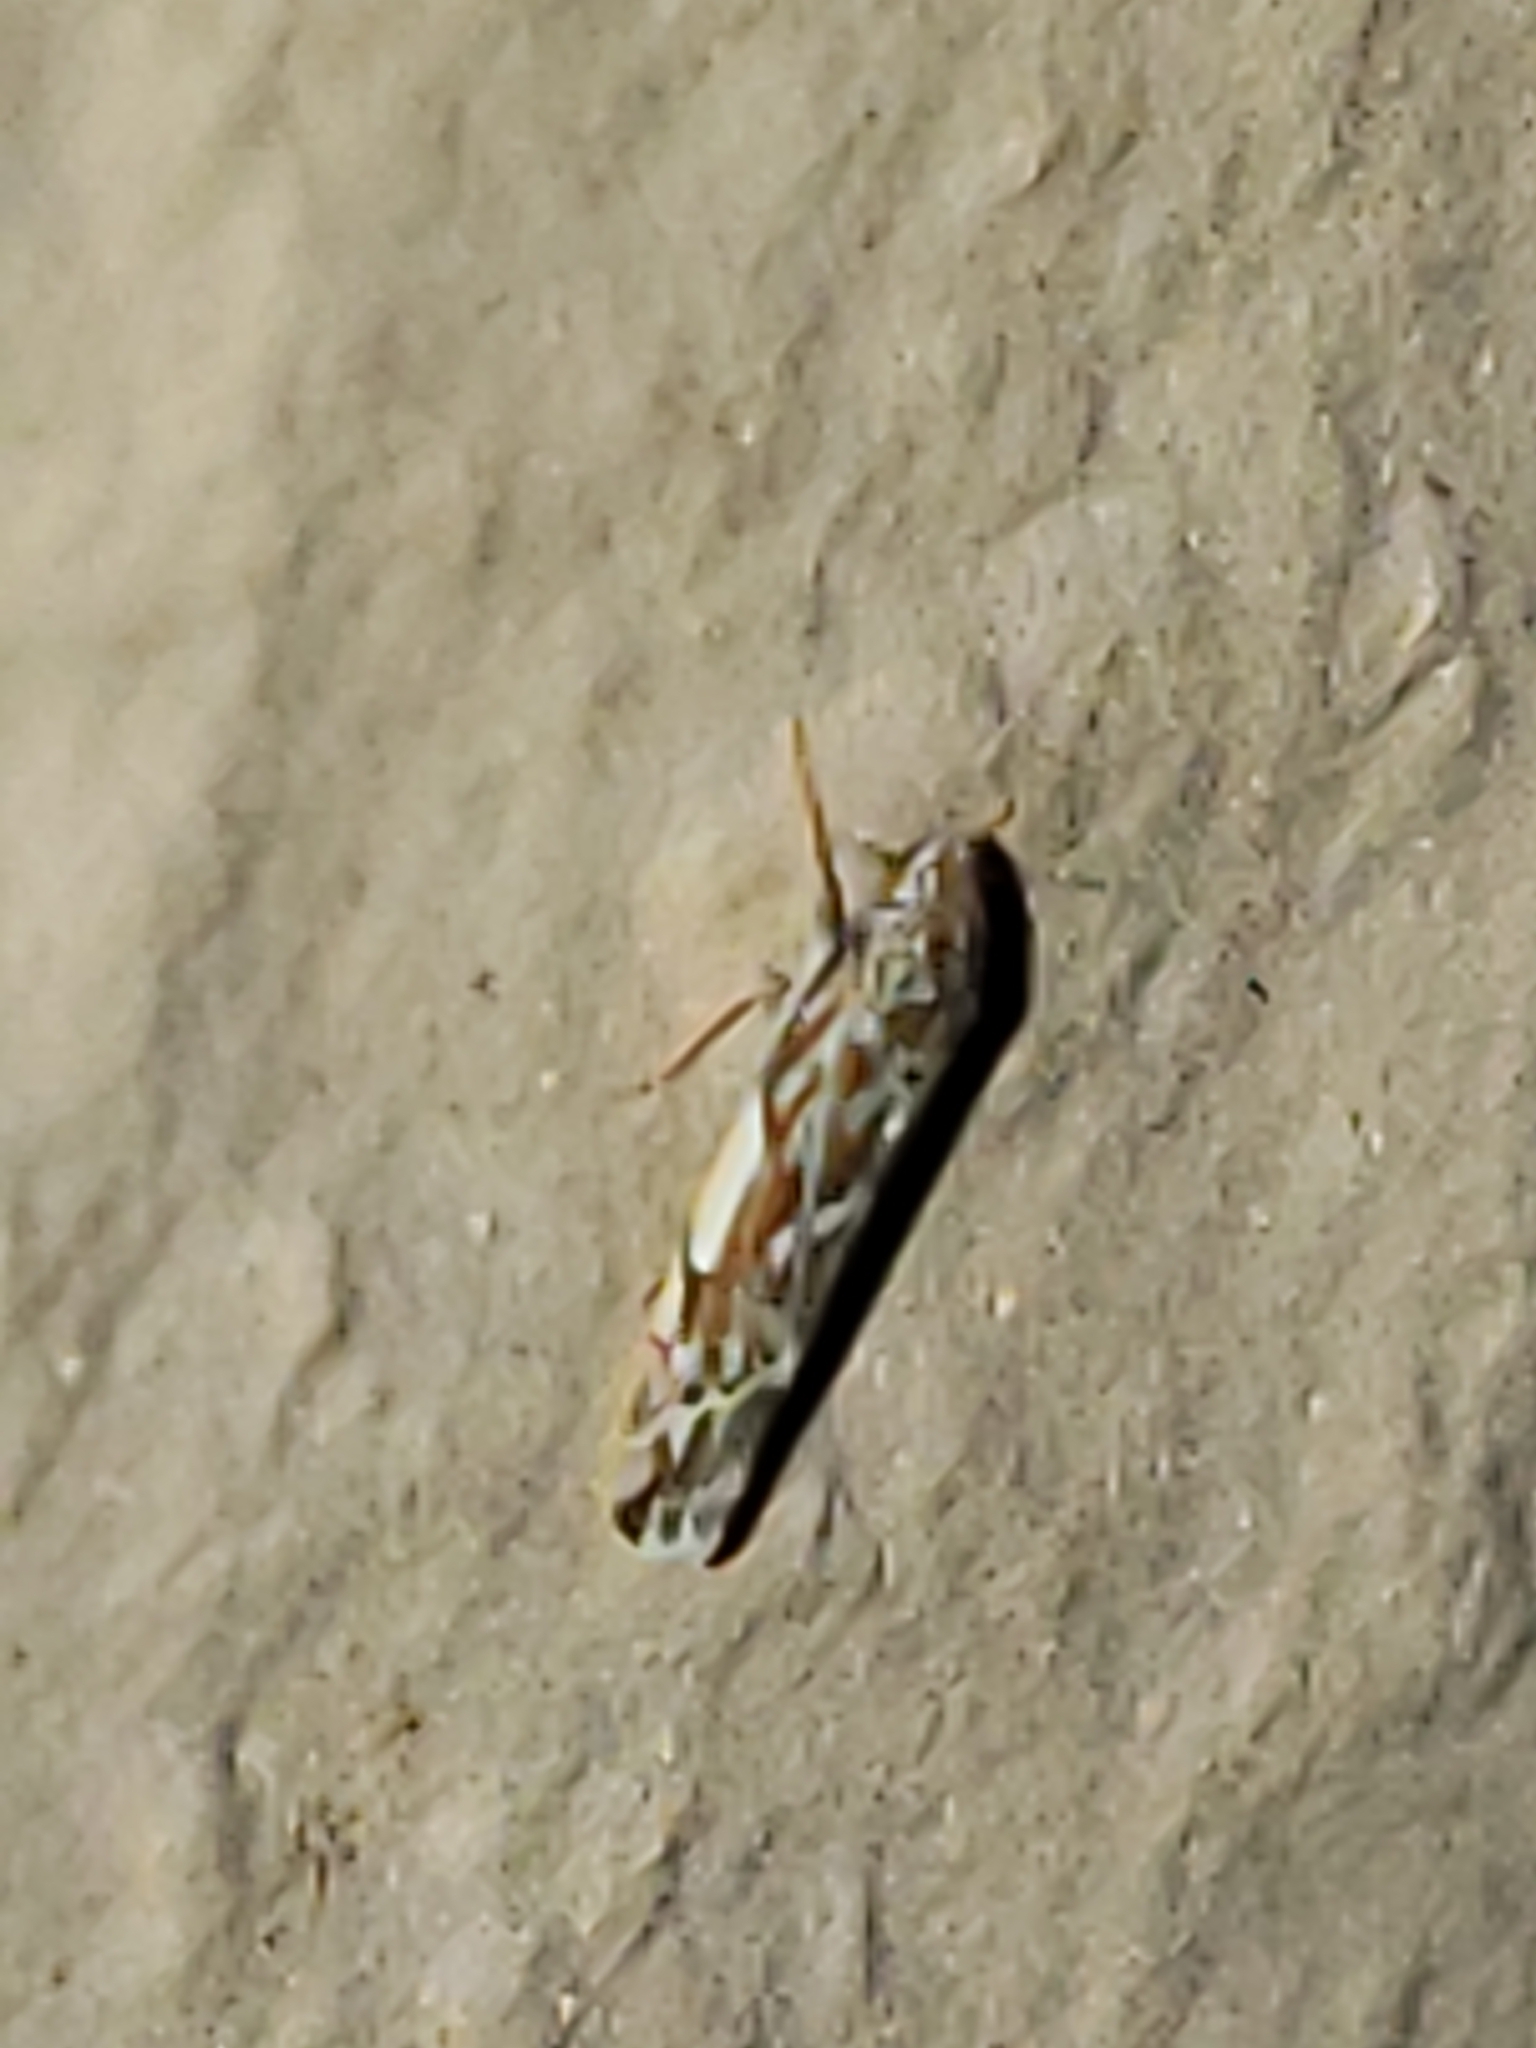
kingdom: Animalia
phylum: Arthropoda
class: Insecta
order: Hemiptera
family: Cicadellidae
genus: Erasmoneura
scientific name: Erasmoneura vulnerata
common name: The wounded leafhopper
